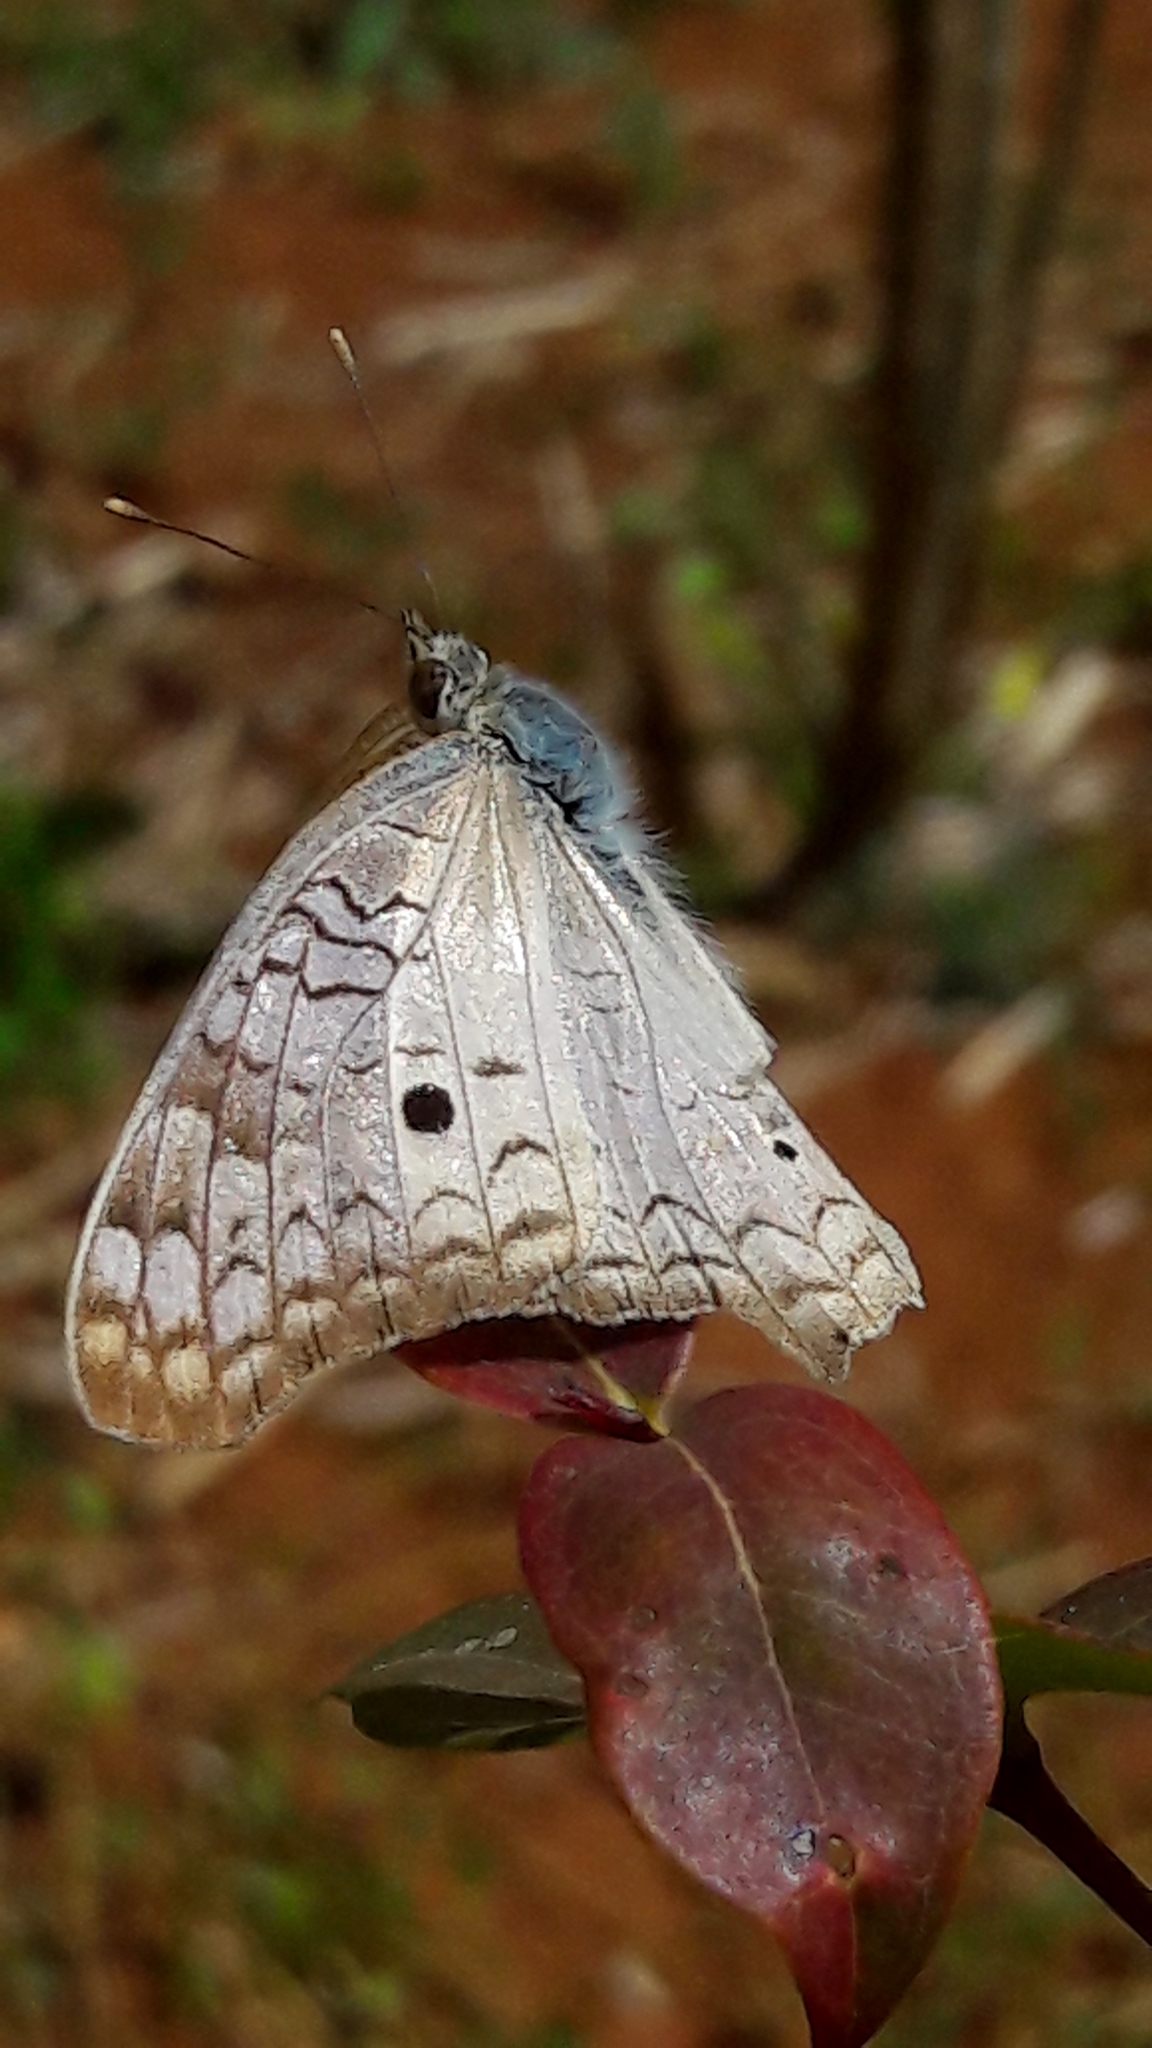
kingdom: Animalia
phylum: Arthropoda
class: Insecta
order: Lepidoptera
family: Nymphalidae
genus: Anartia
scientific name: Anartia jatrophae
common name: White peacock
